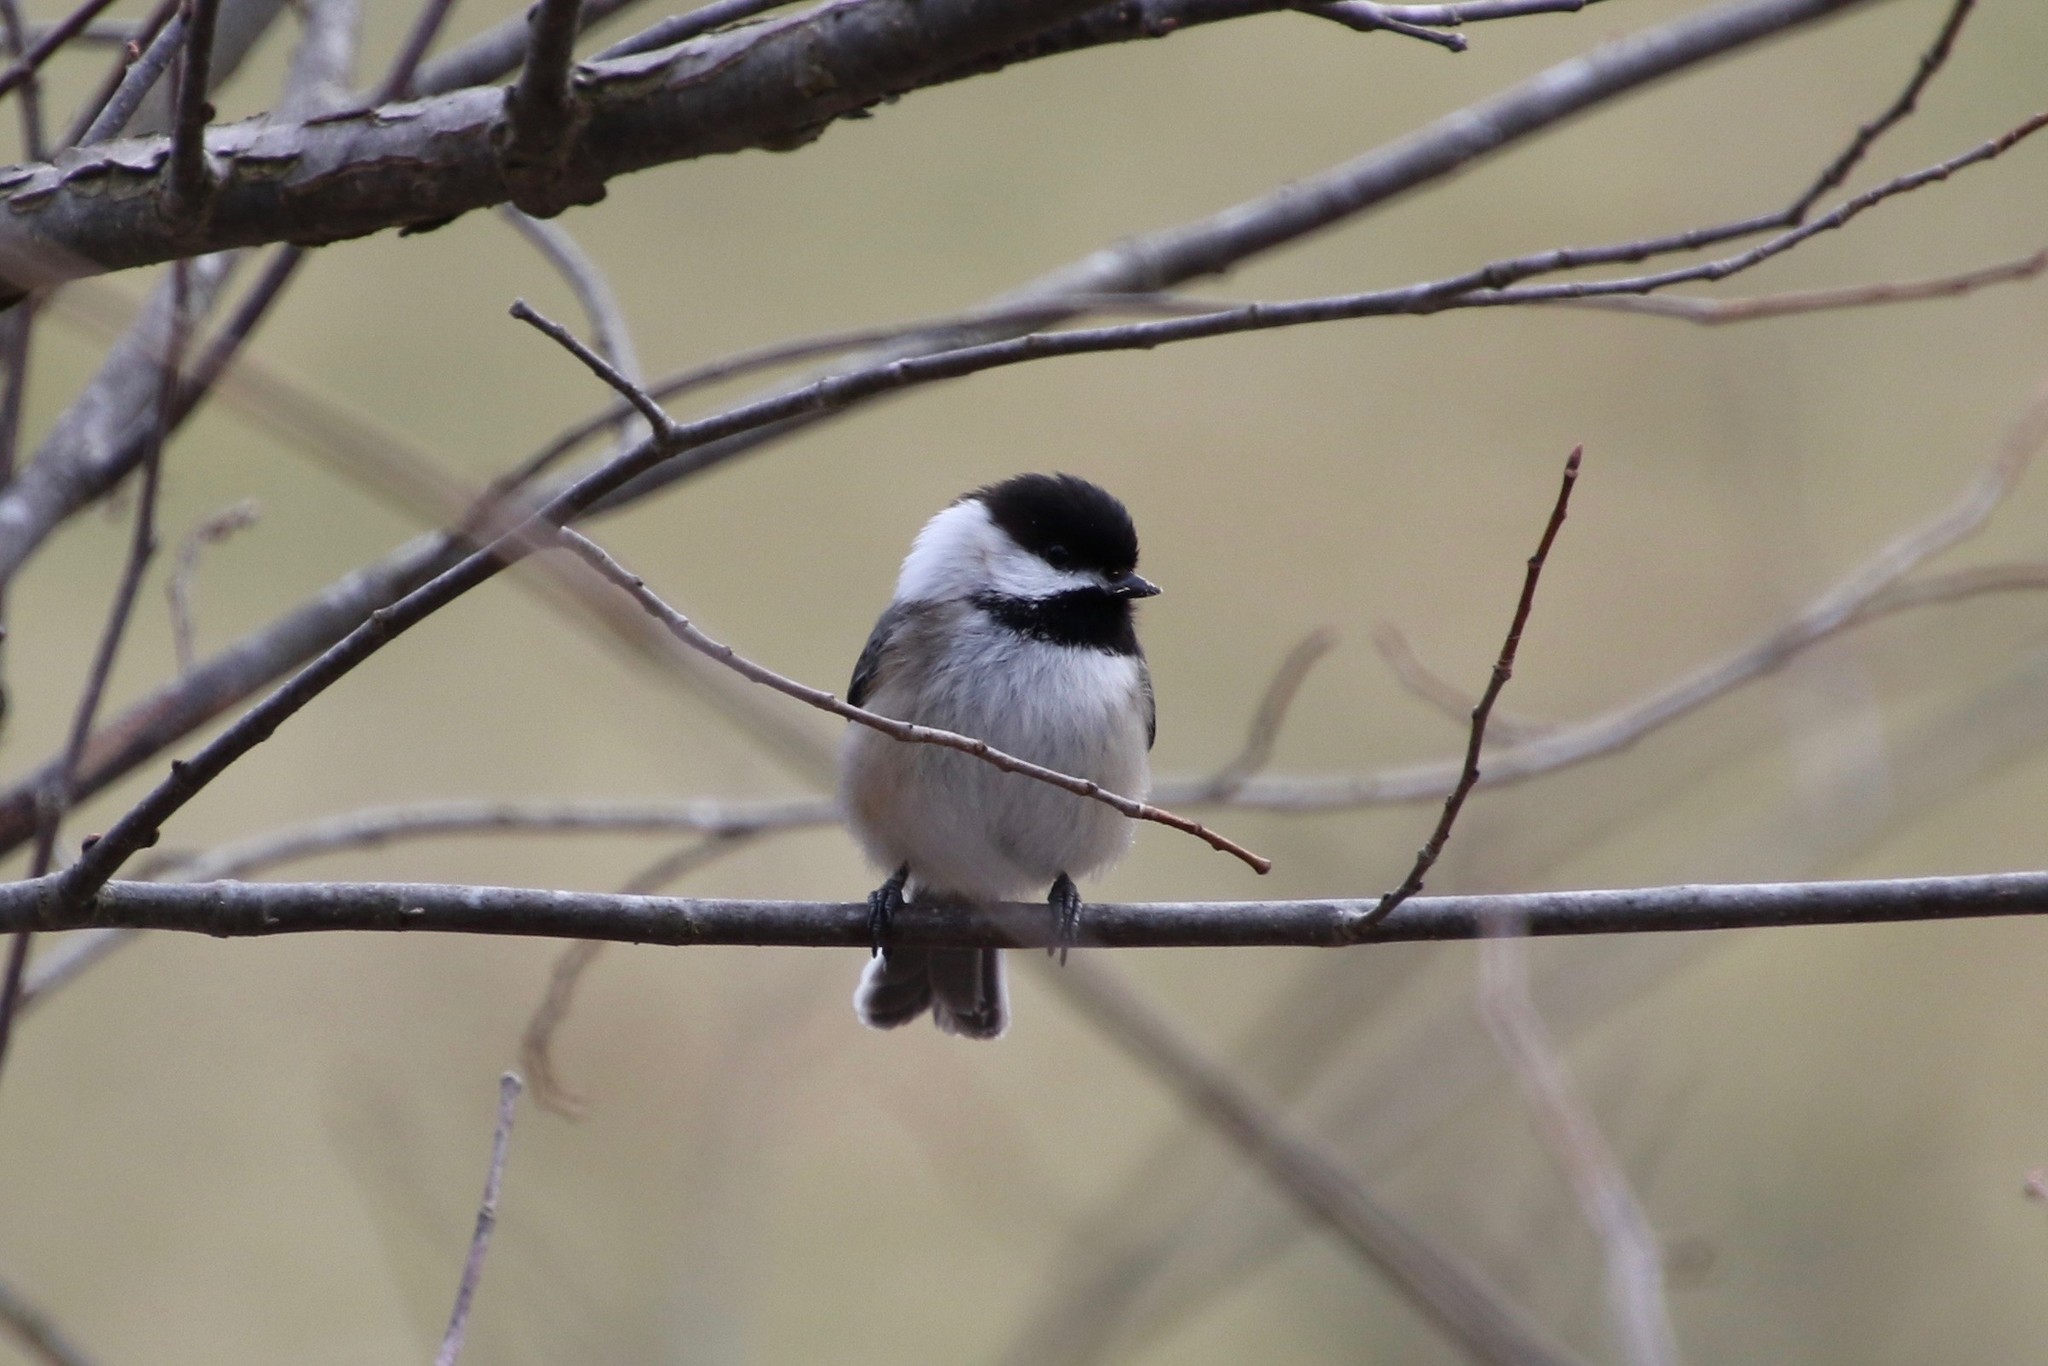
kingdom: Animalia
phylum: Chordata
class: Aves
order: Passeriformes
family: Paridae
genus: Poecile
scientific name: Poecile atricapillus
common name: Black-capped chickadee
